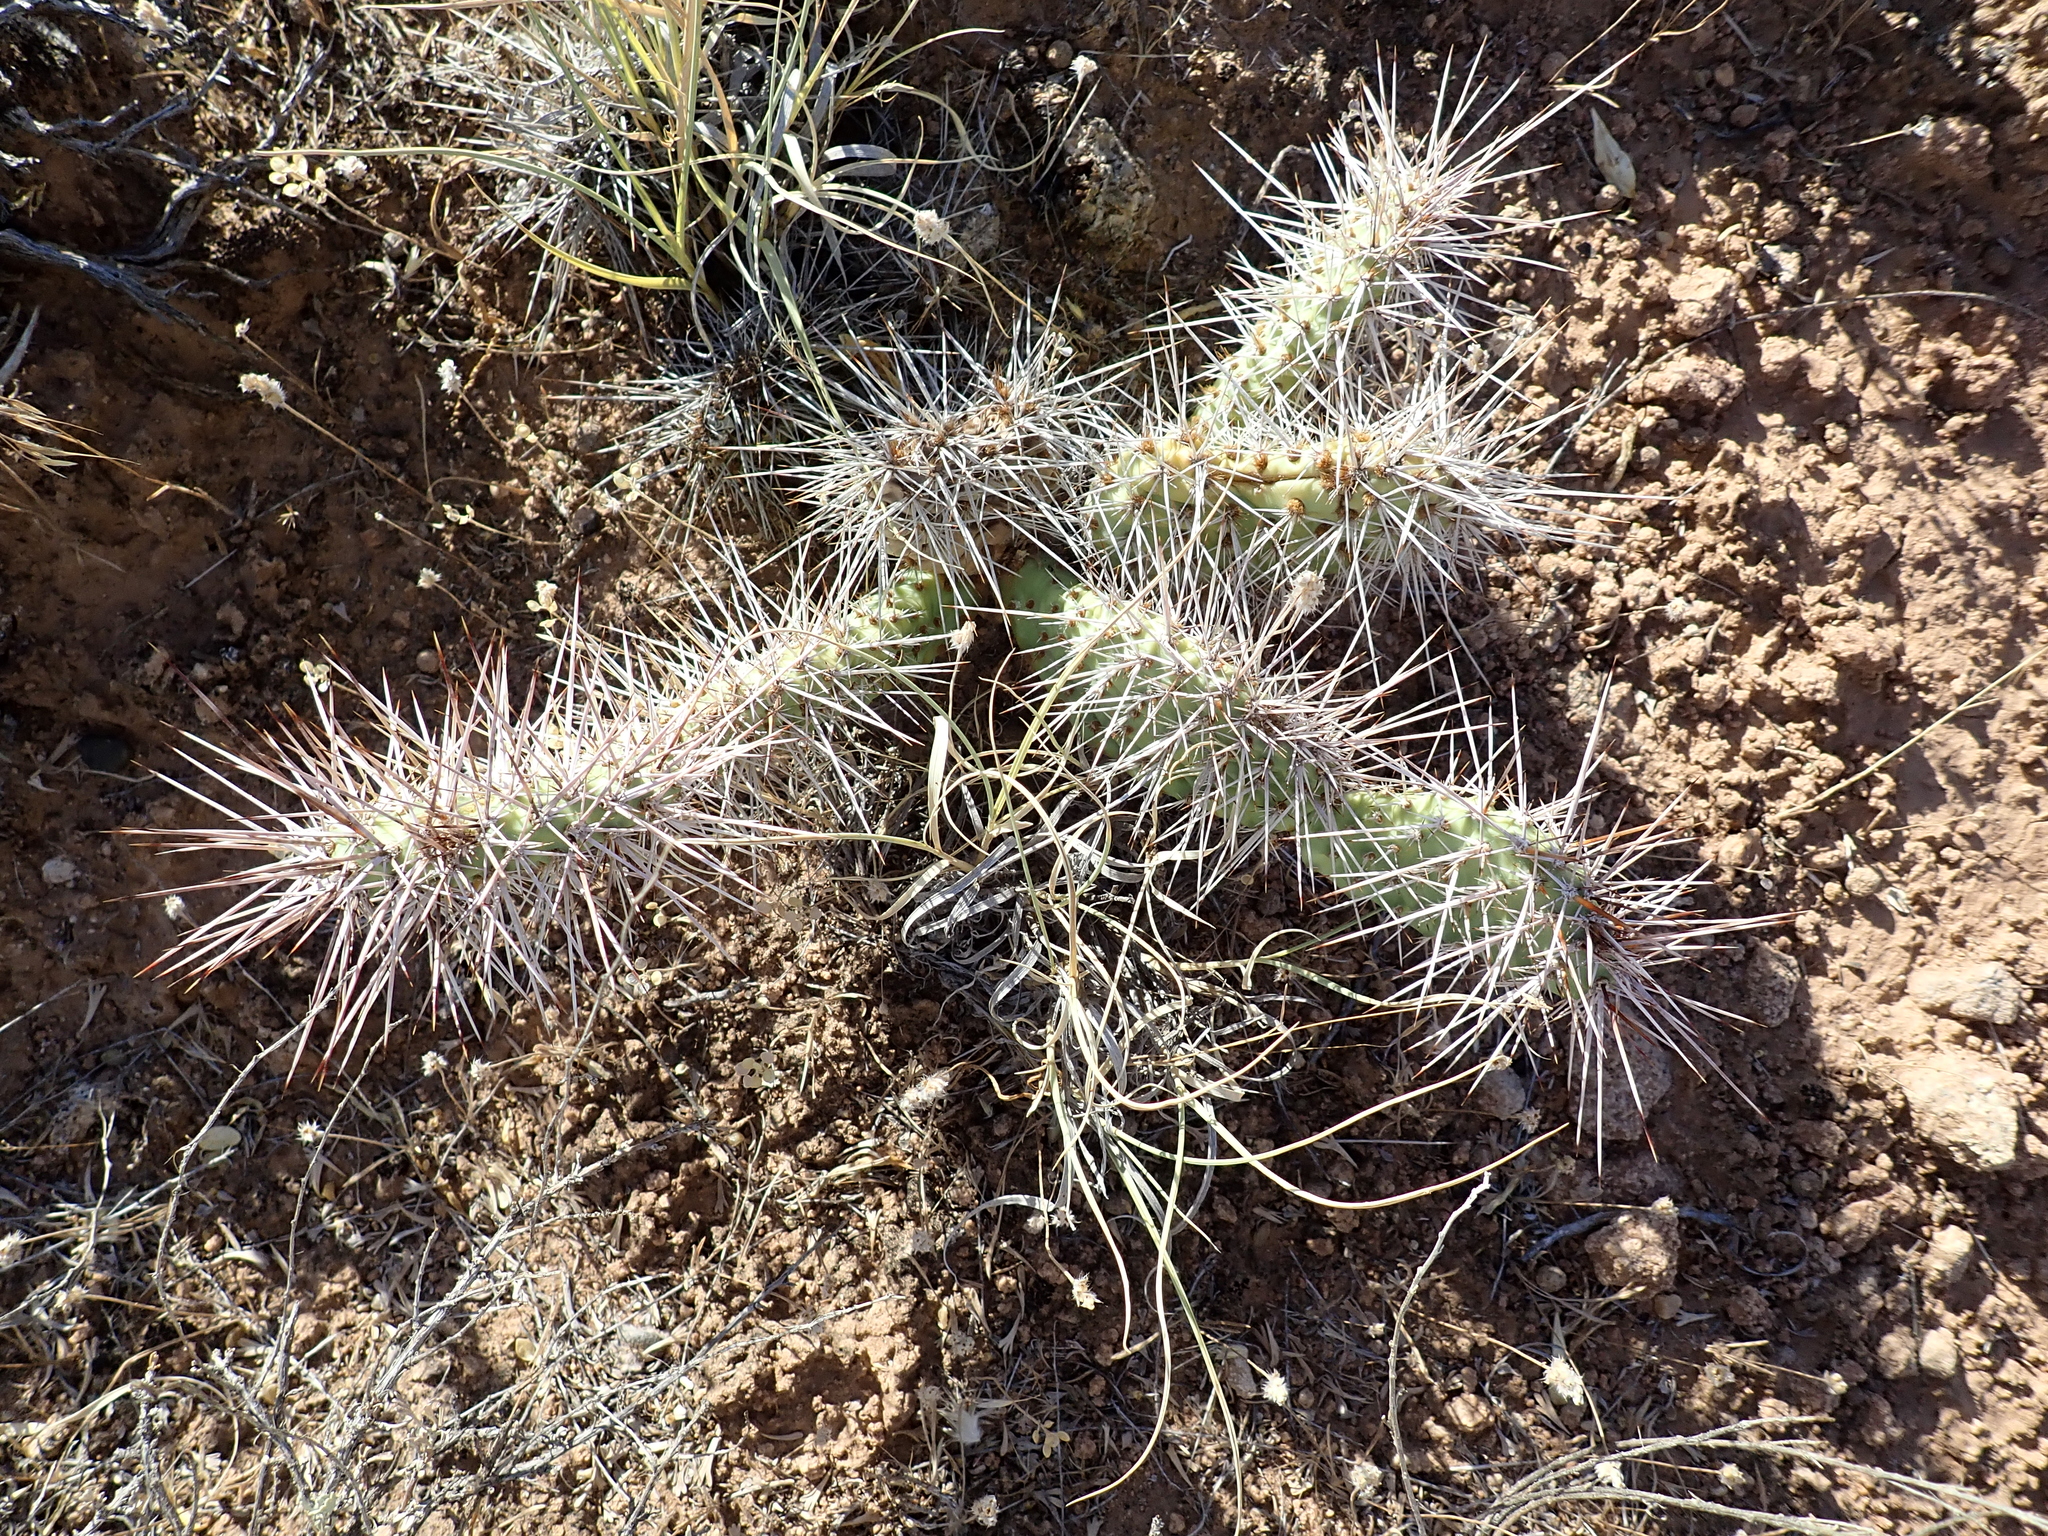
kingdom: Plantae
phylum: Tracheophyta
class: Magnoliopsida
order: Caryophyllales
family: Cactaceae
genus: Opuntia
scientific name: Opuntia polyacantha
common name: Plains prickly-pear
